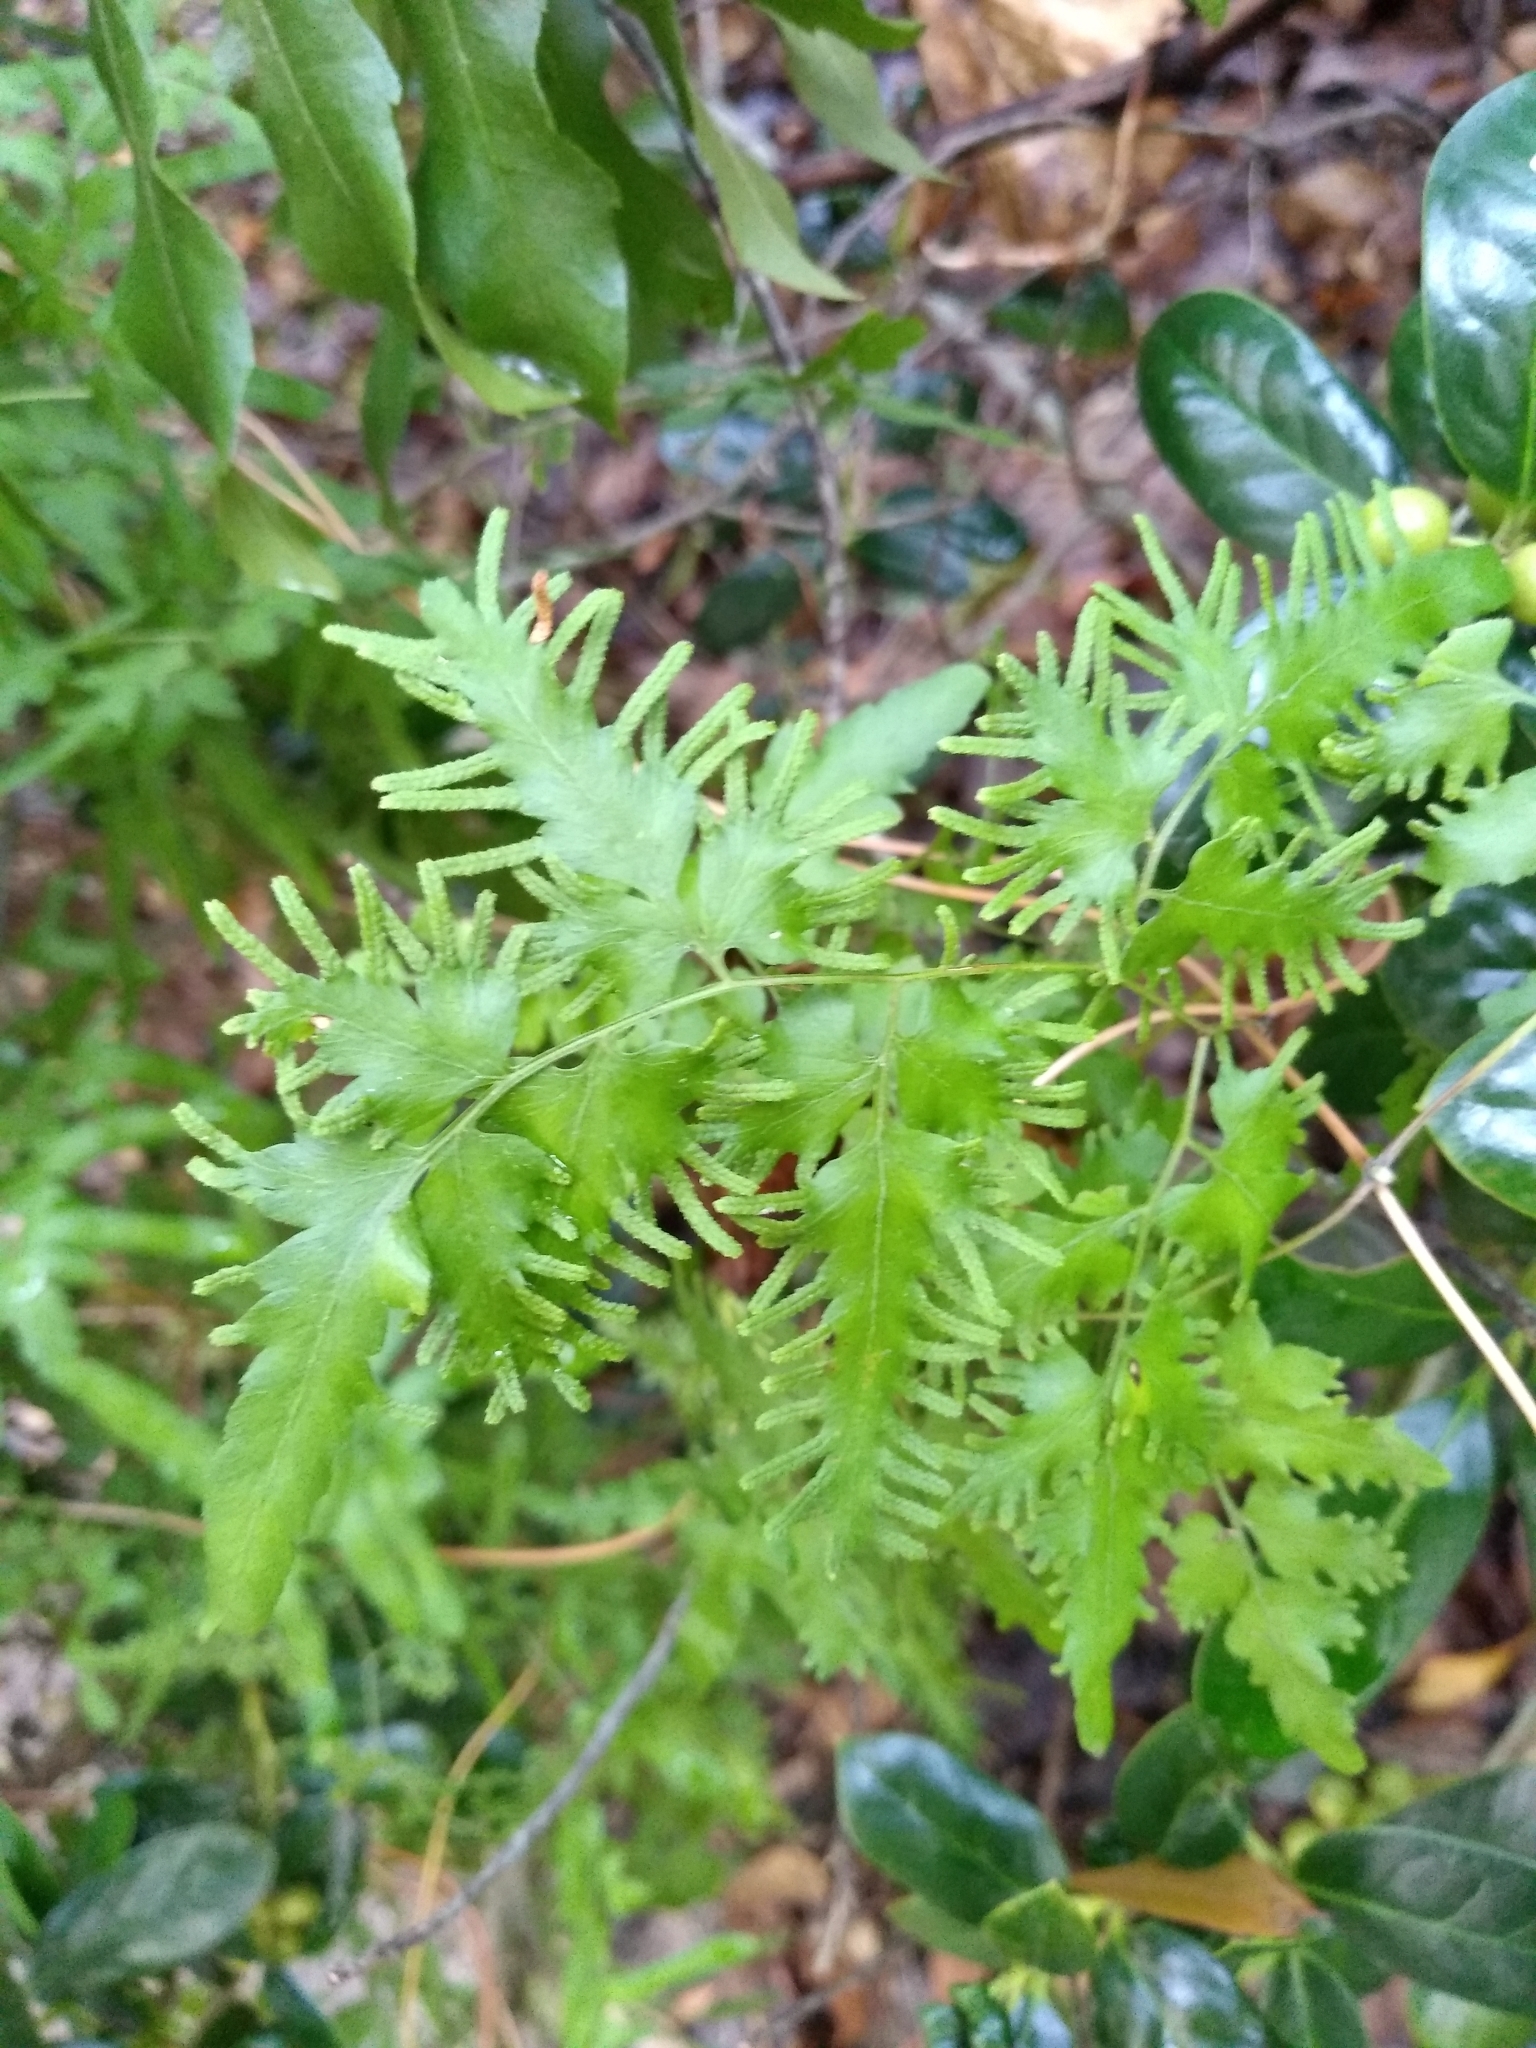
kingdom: Plantae
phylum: Tracheophyta
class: Polypodiopsida
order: Schizaeales
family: Lygodiaceae
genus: Lygodium
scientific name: Lygodium japonicum
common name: Japanese climbing fern
